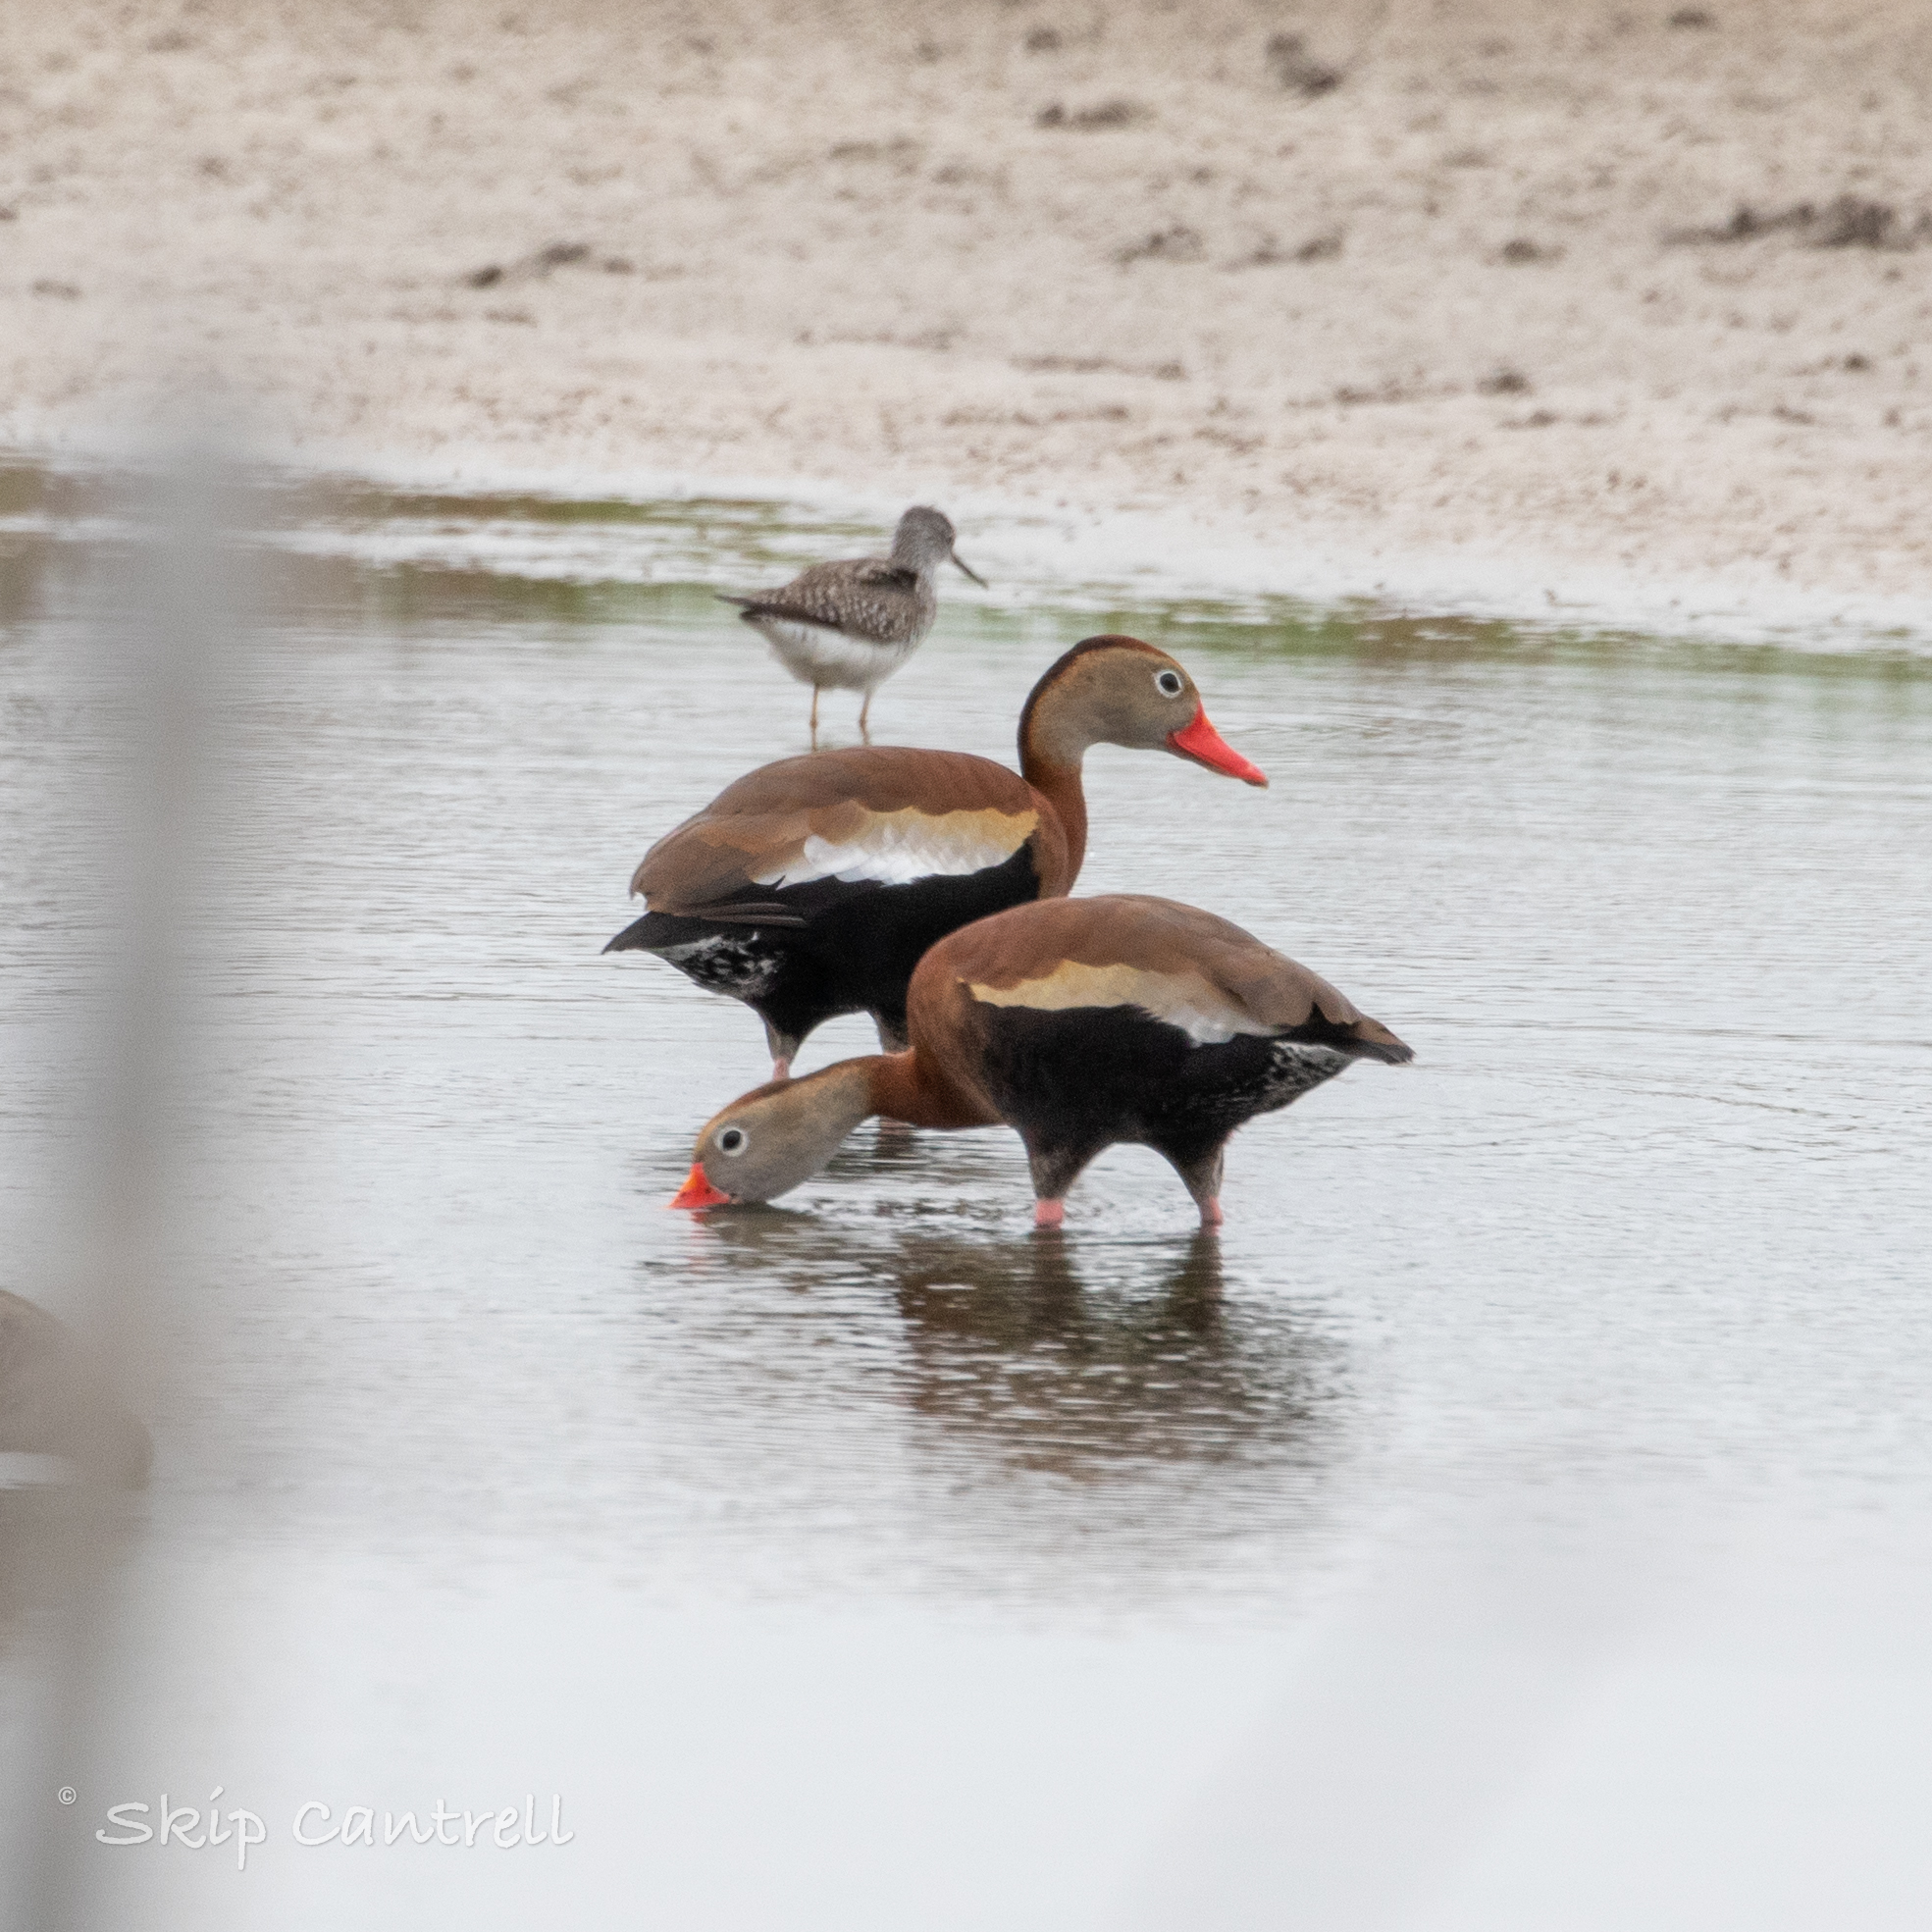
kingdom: Animalia
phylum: Chordata
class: Aves
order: Anseriformes
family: Anatidae
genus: Dendrocygna
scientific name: Dendrocygna autumnalis
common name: Black-bellied whistling duck
